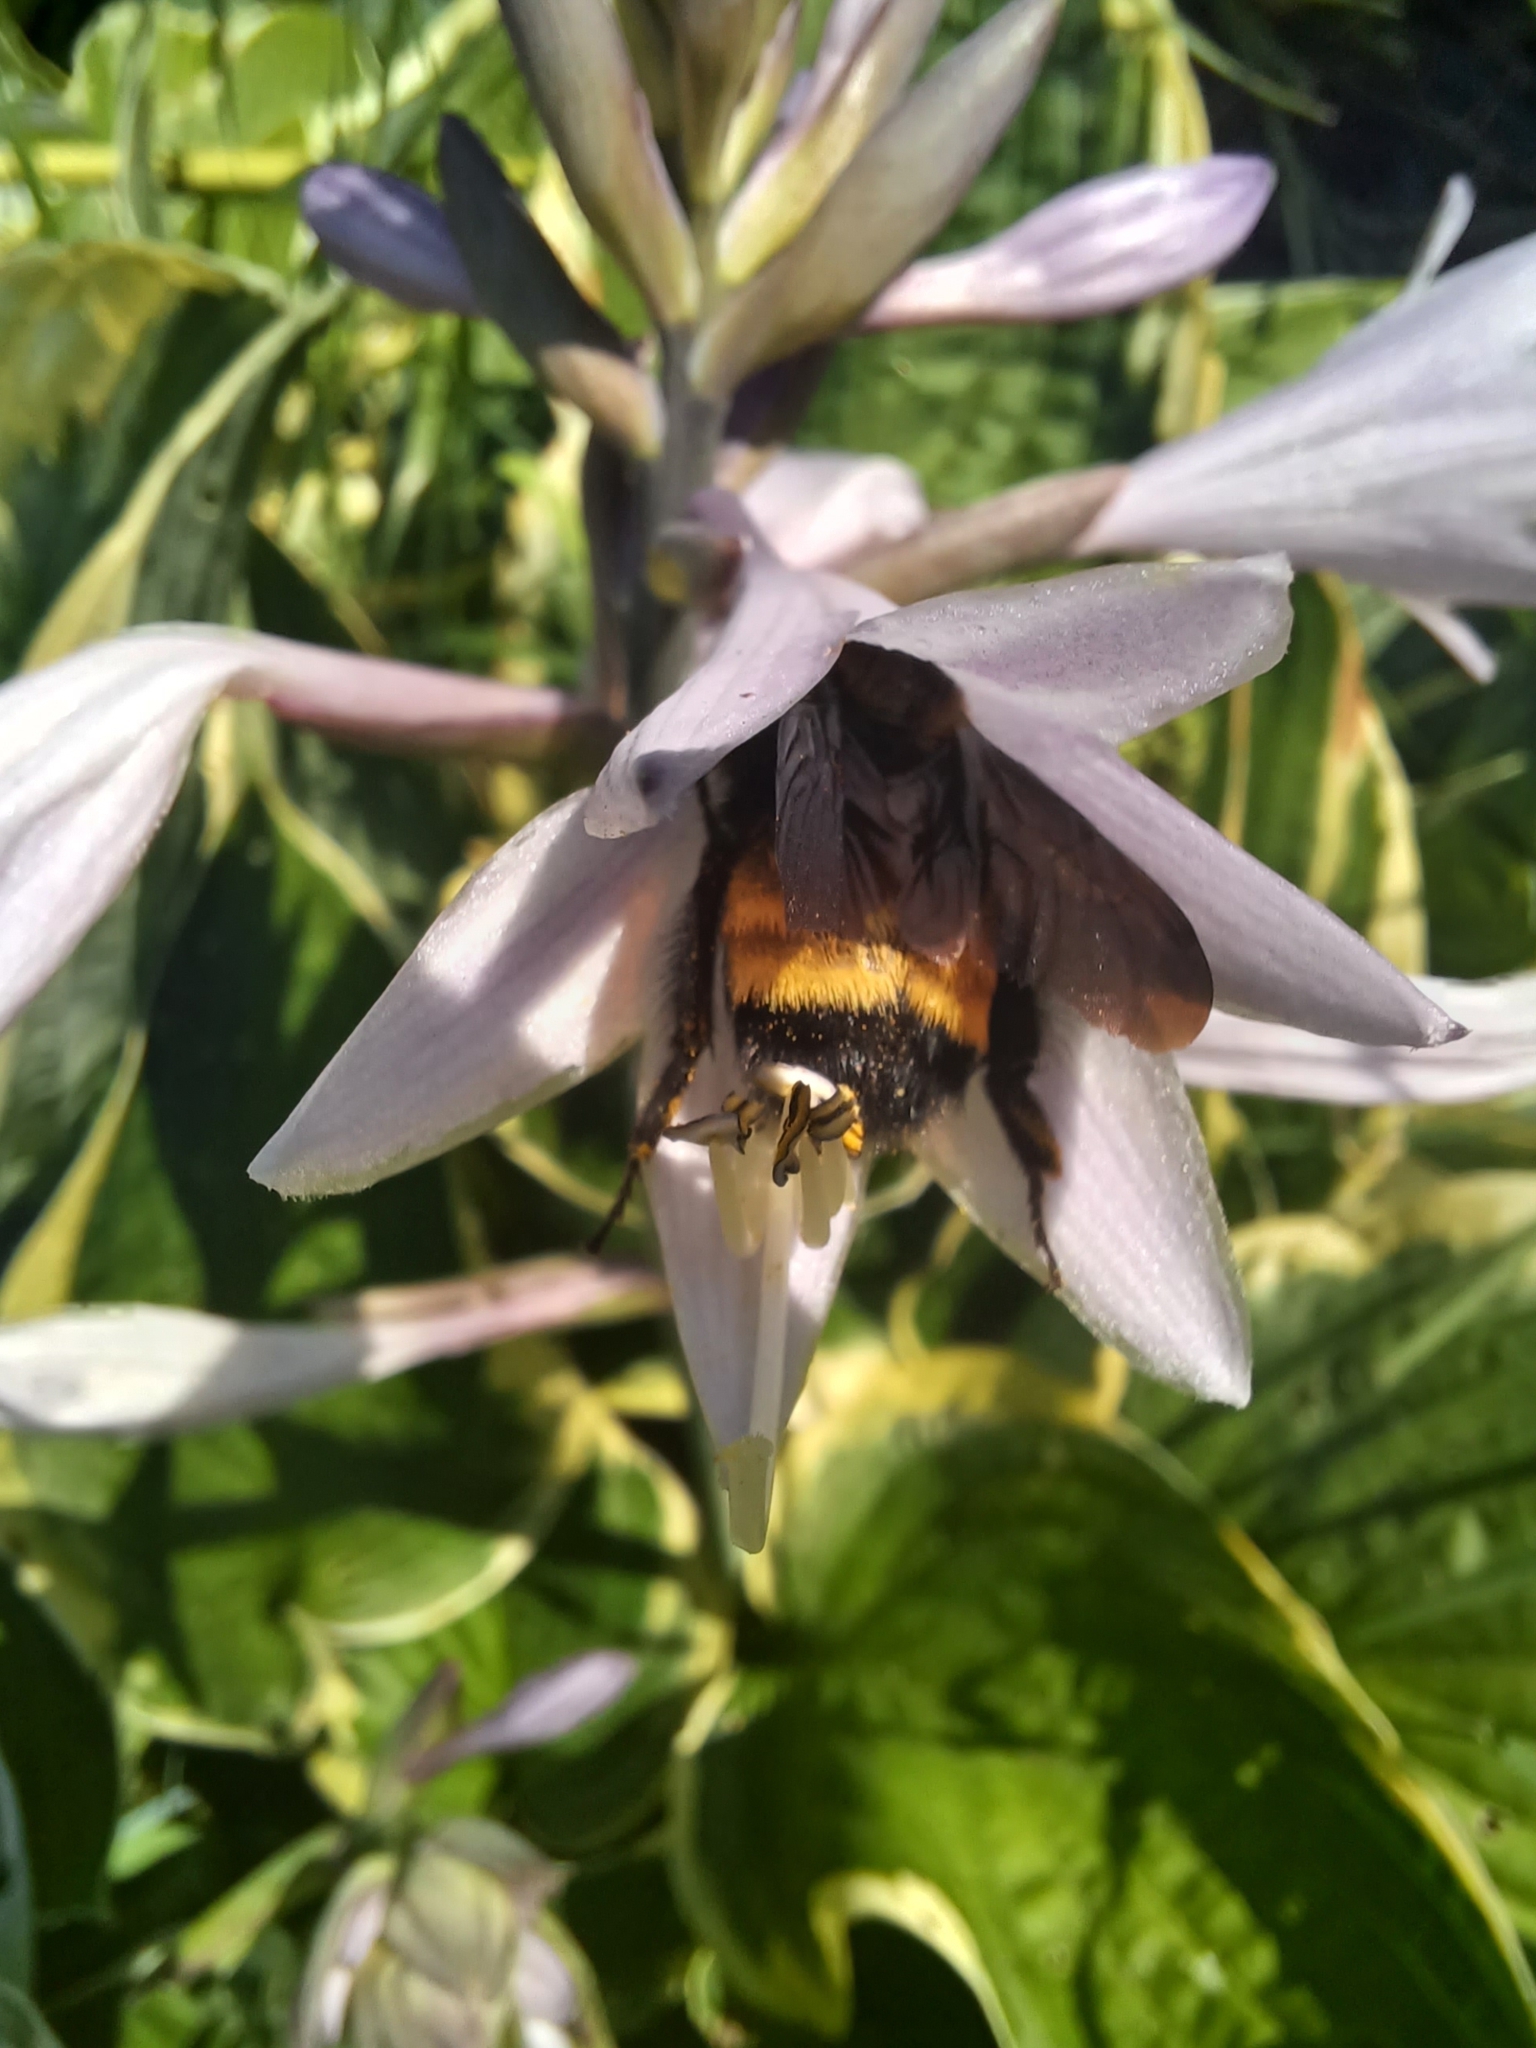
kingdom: Animalia
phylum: Arthropoda
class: Insecta
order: Hymenoptera
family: Apidae
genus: Bombus
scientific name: Bombus auricomus
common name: Black and gold bumble bee
